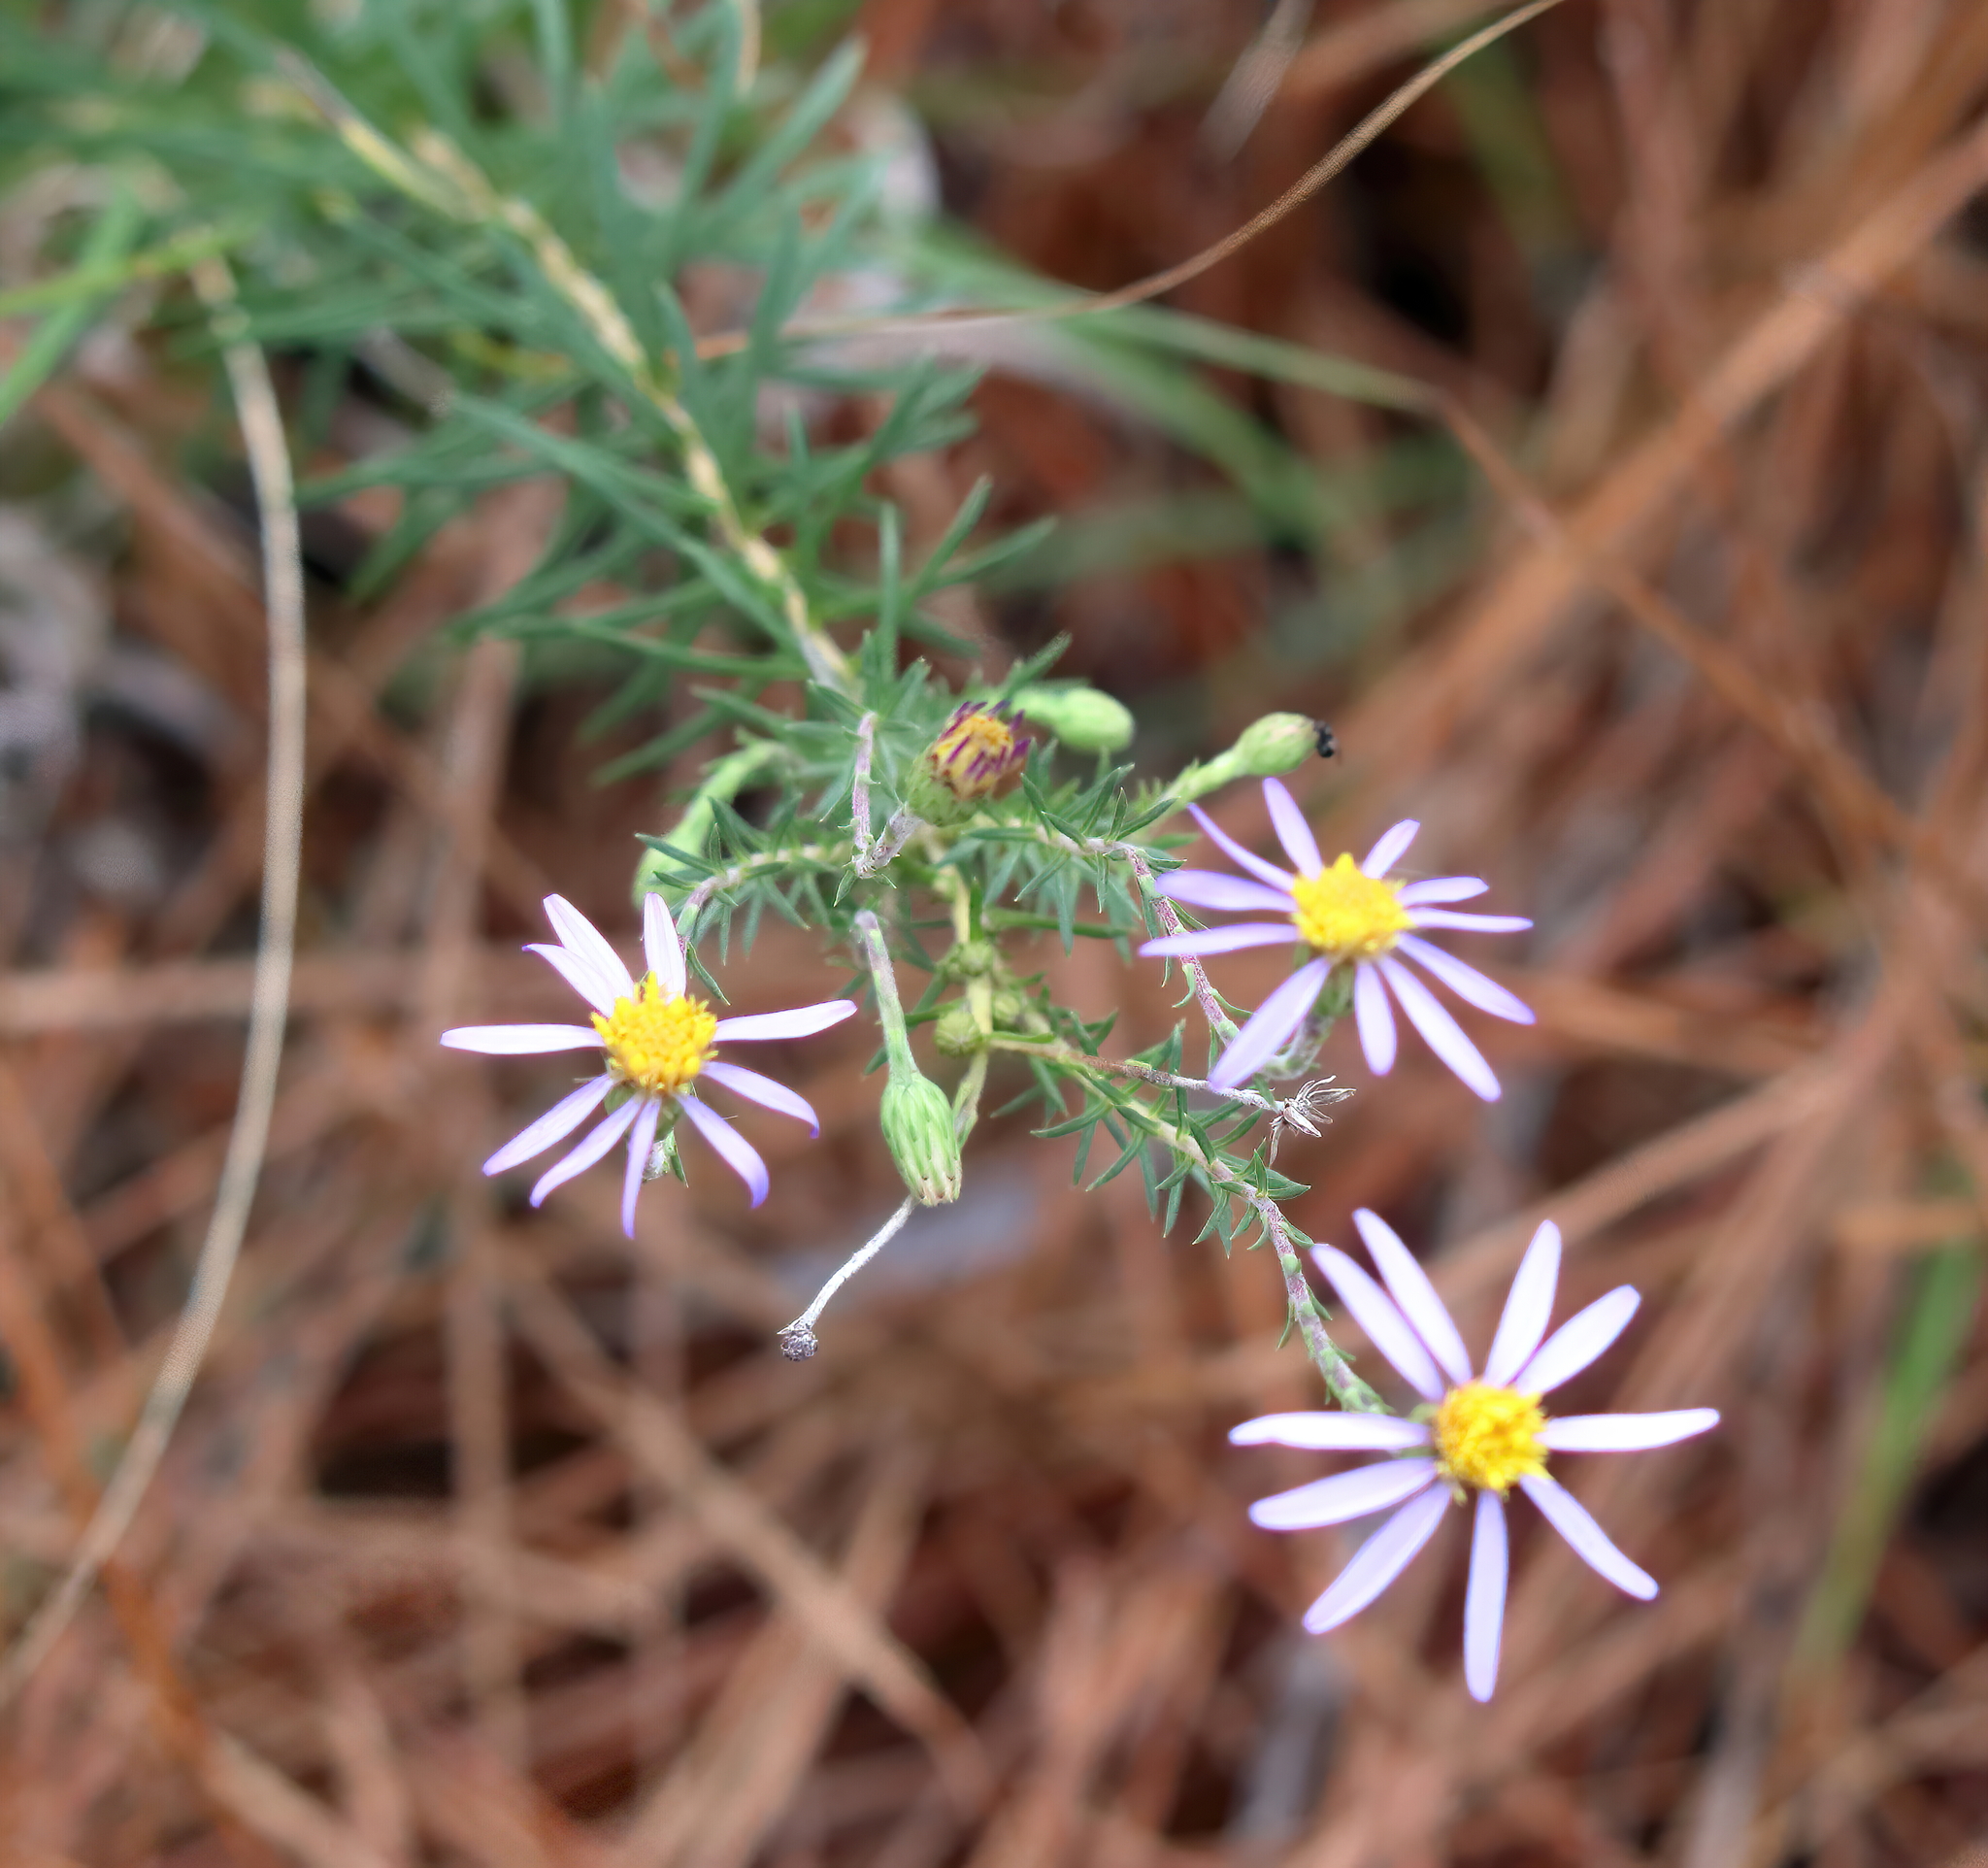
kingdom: Plantae
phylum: Tracheophyta
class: Magnoliopsida
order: Asterales
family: Asteraceae
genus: Ionactis
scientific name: Ionactis repens
